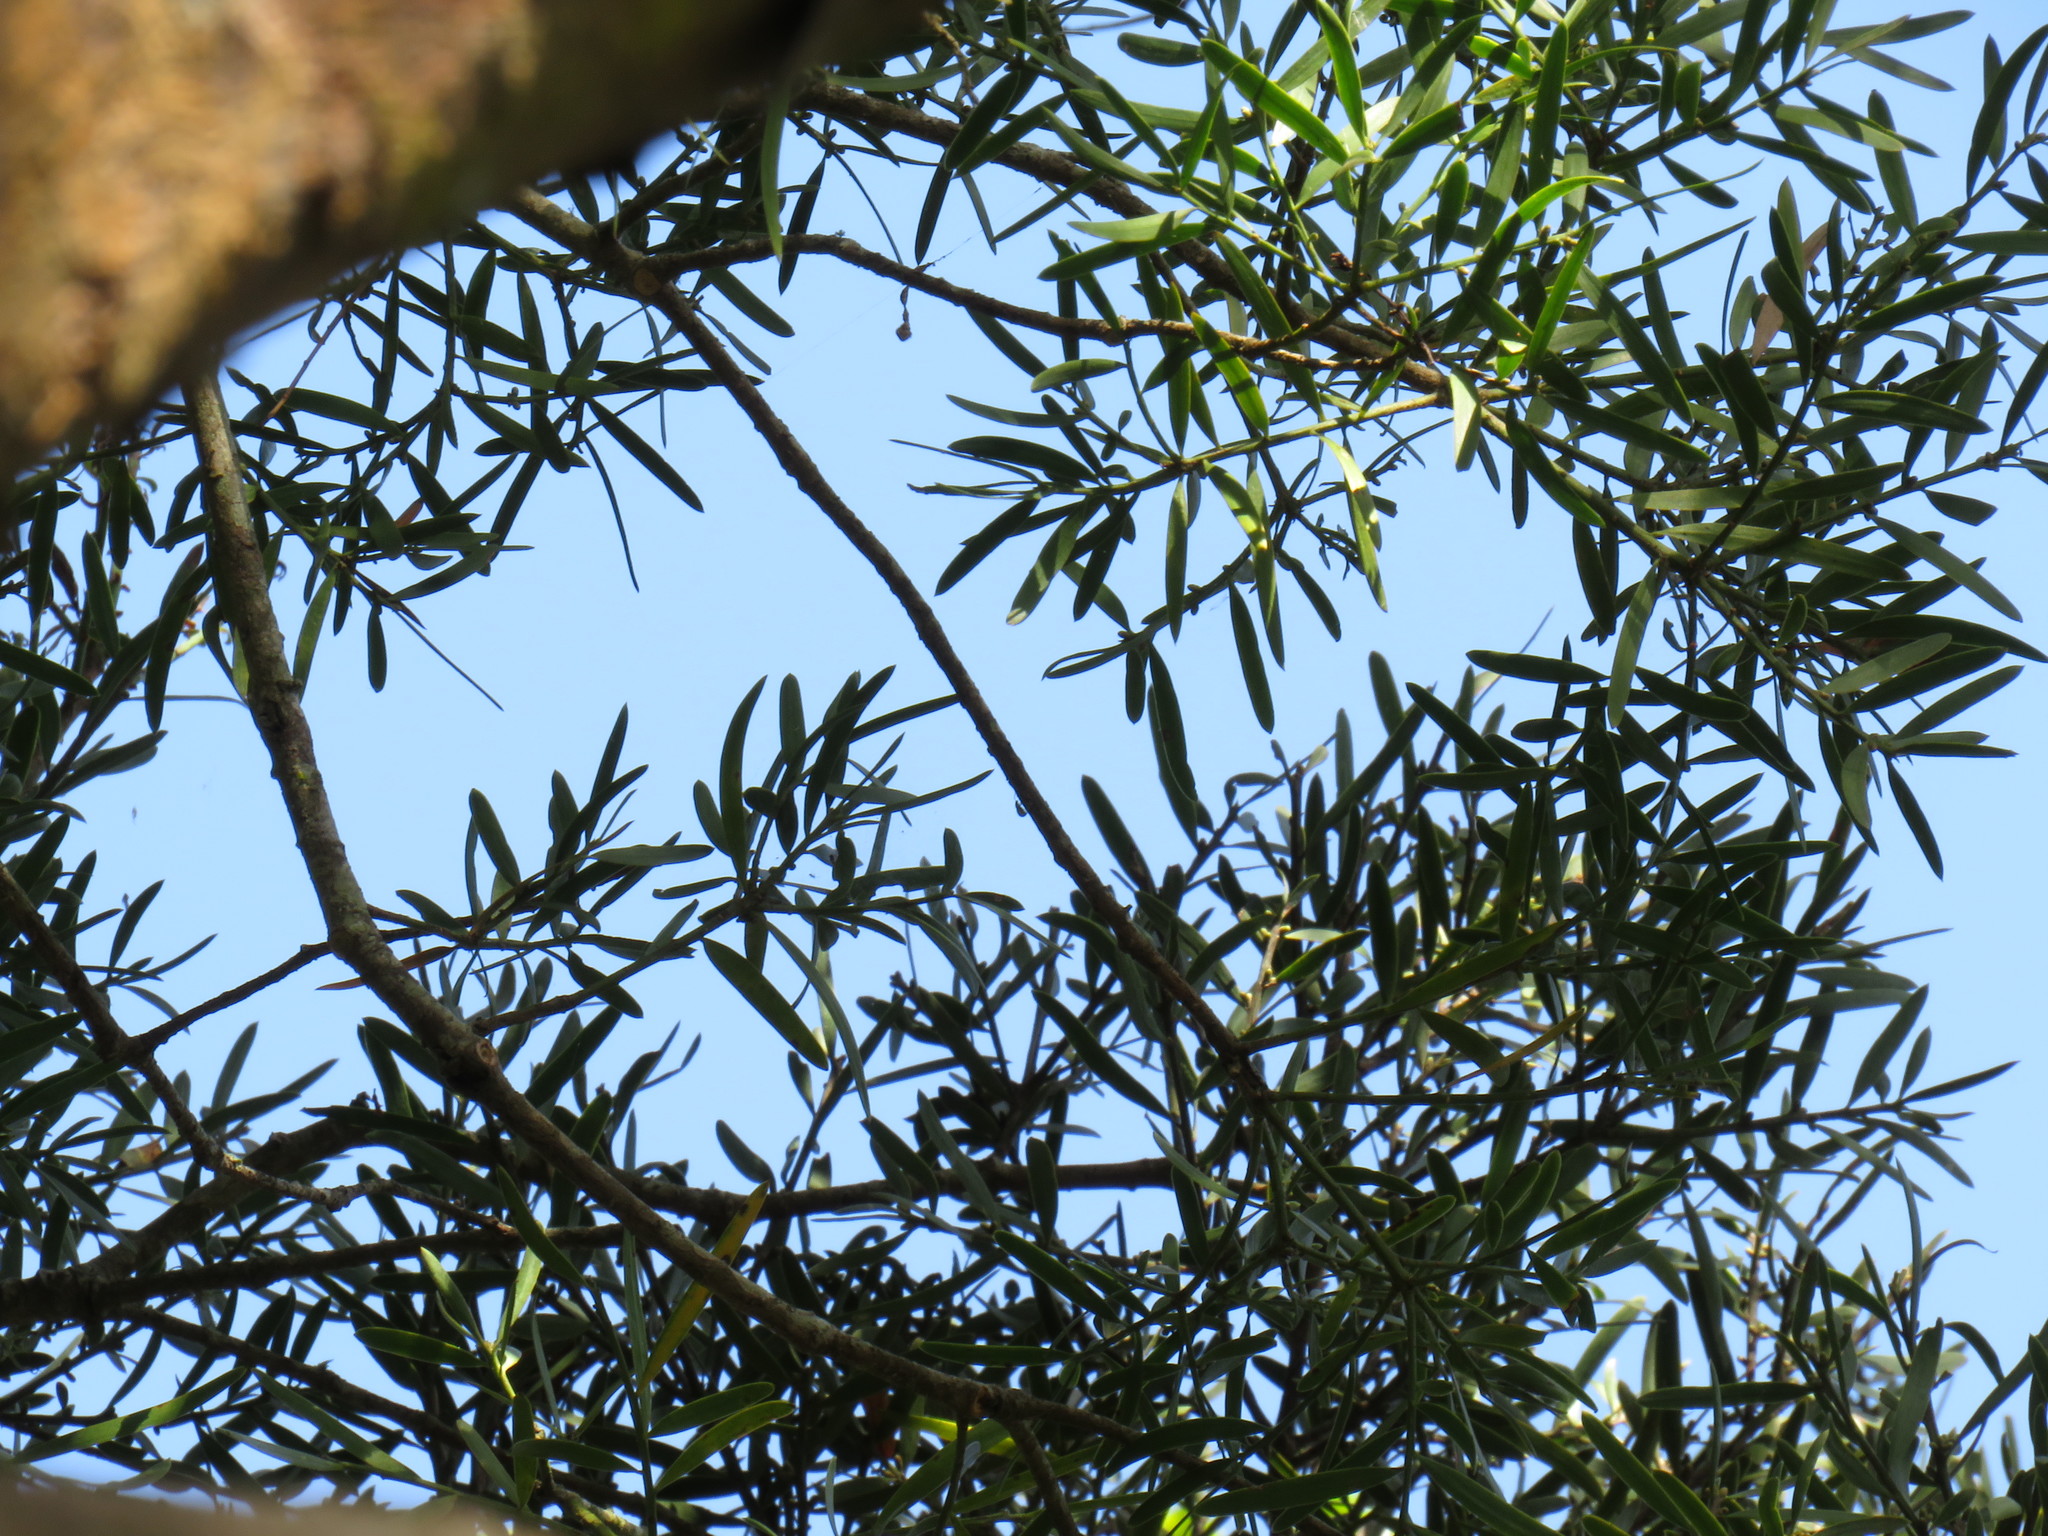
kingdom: Plantae
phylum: Tracheophyta
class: Pinopsida
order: Pinales
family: Podocarpaceae
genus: Afrocarpus
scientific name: Afrocarpus falcatus
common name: Bastard yellowwood
